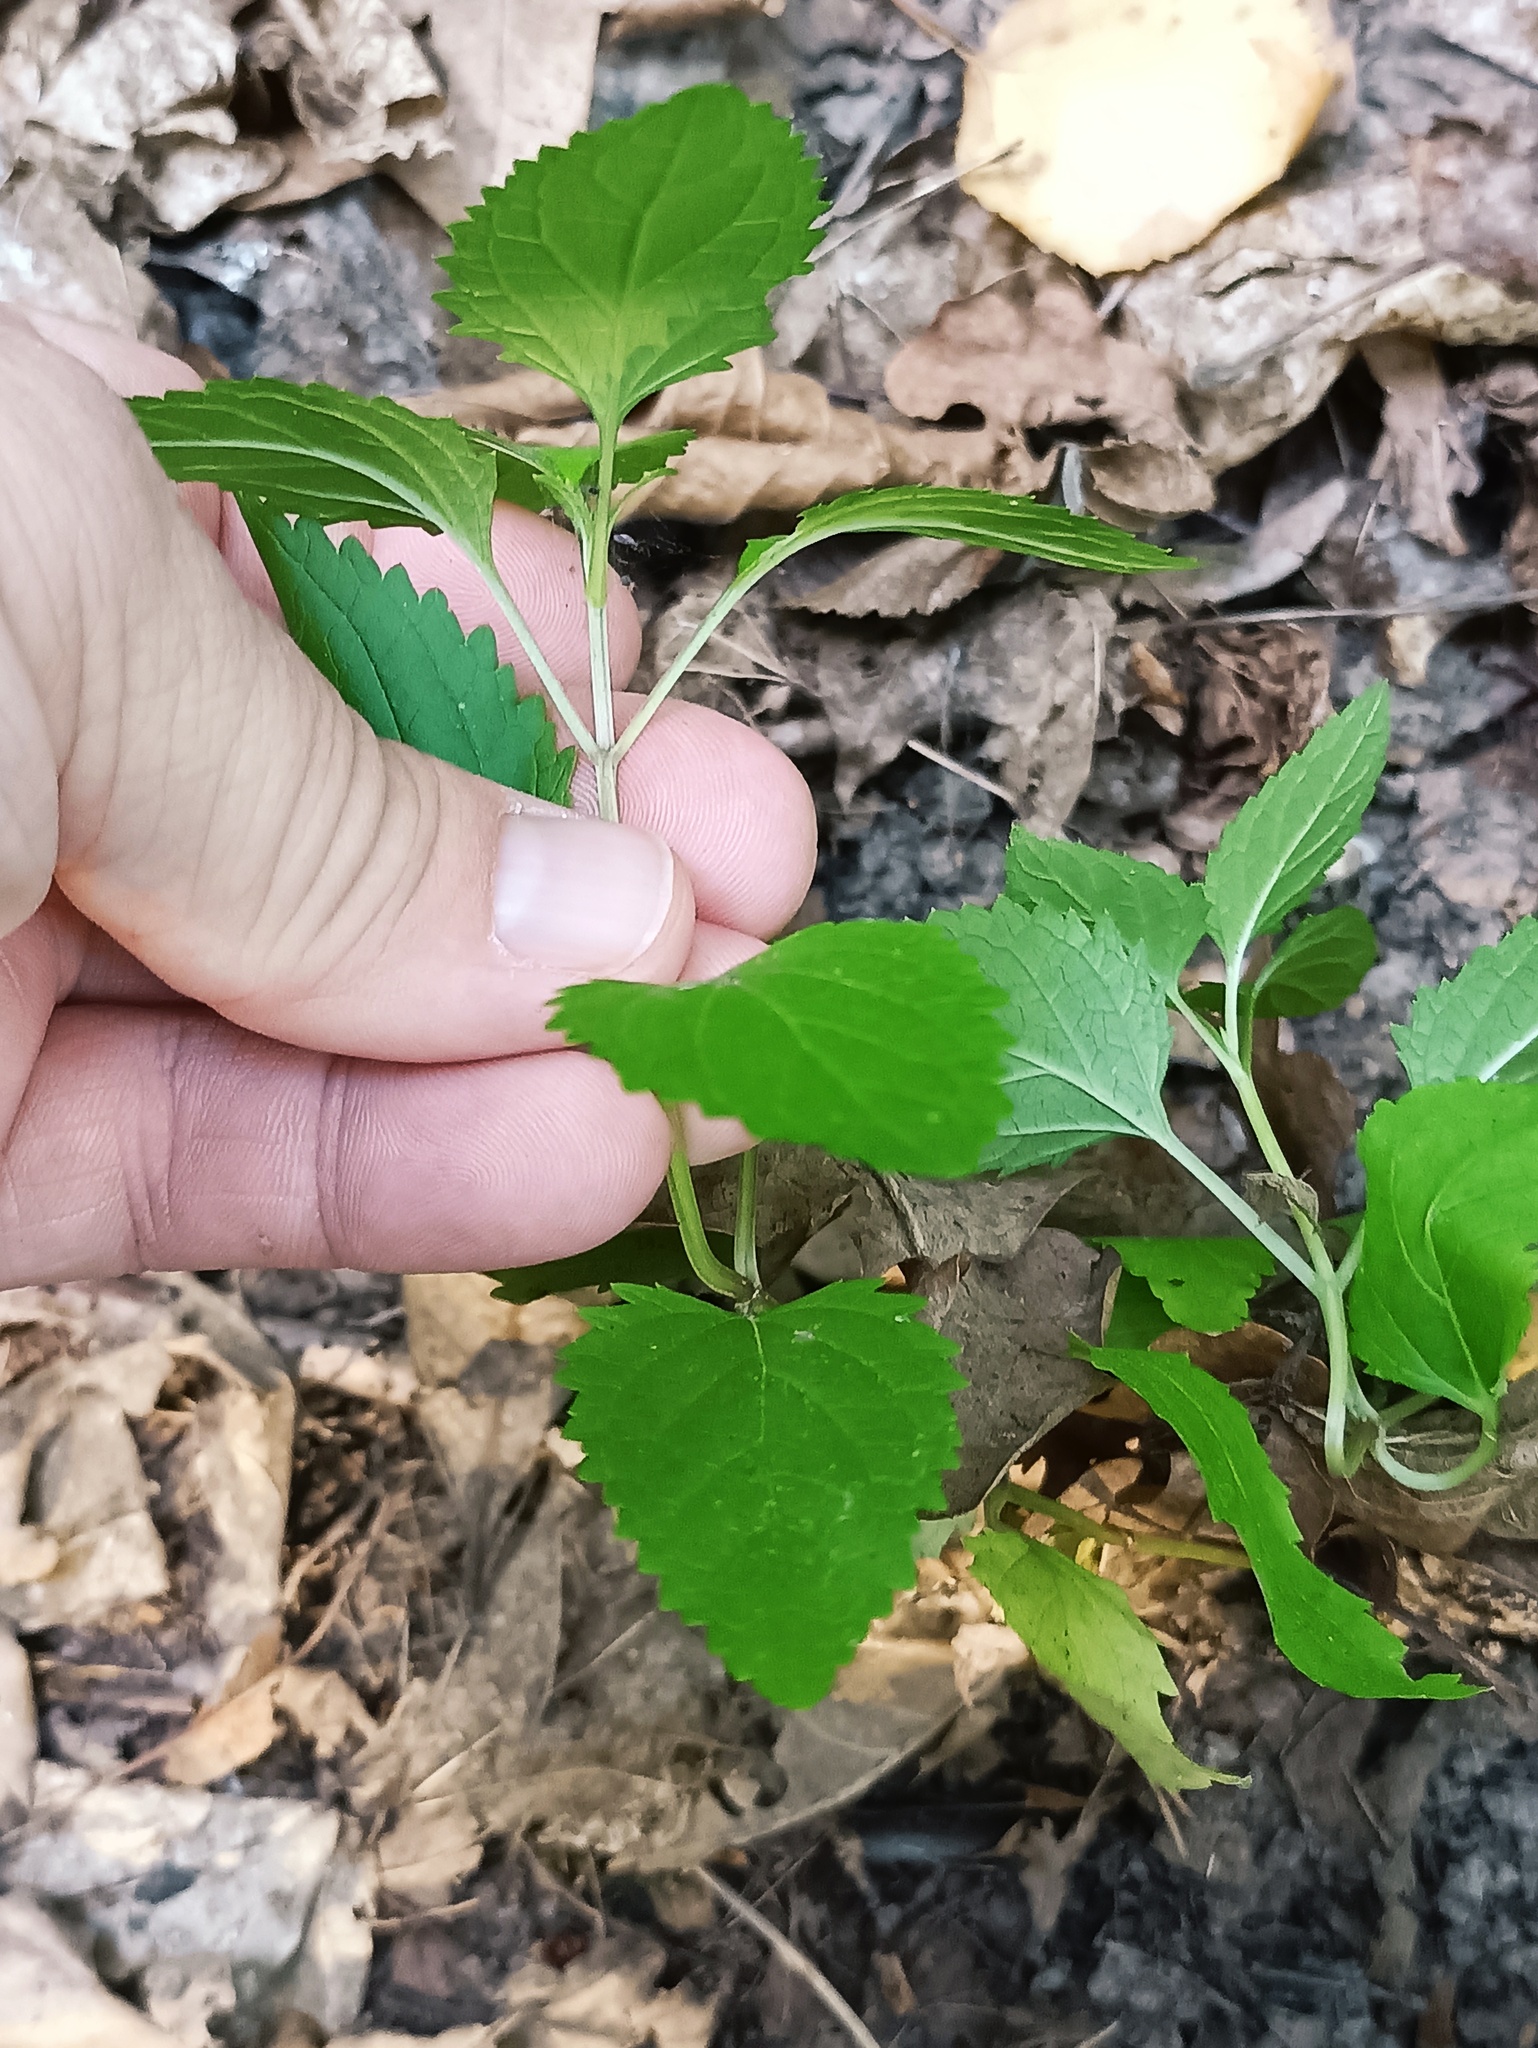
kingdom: Plantae
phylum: Tracheophyta
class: Magnoliopsida
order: Lamiales
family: Scrophulariaceae
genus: Scrophularia
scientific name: Scrophularia nodosa
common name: Common figwort
